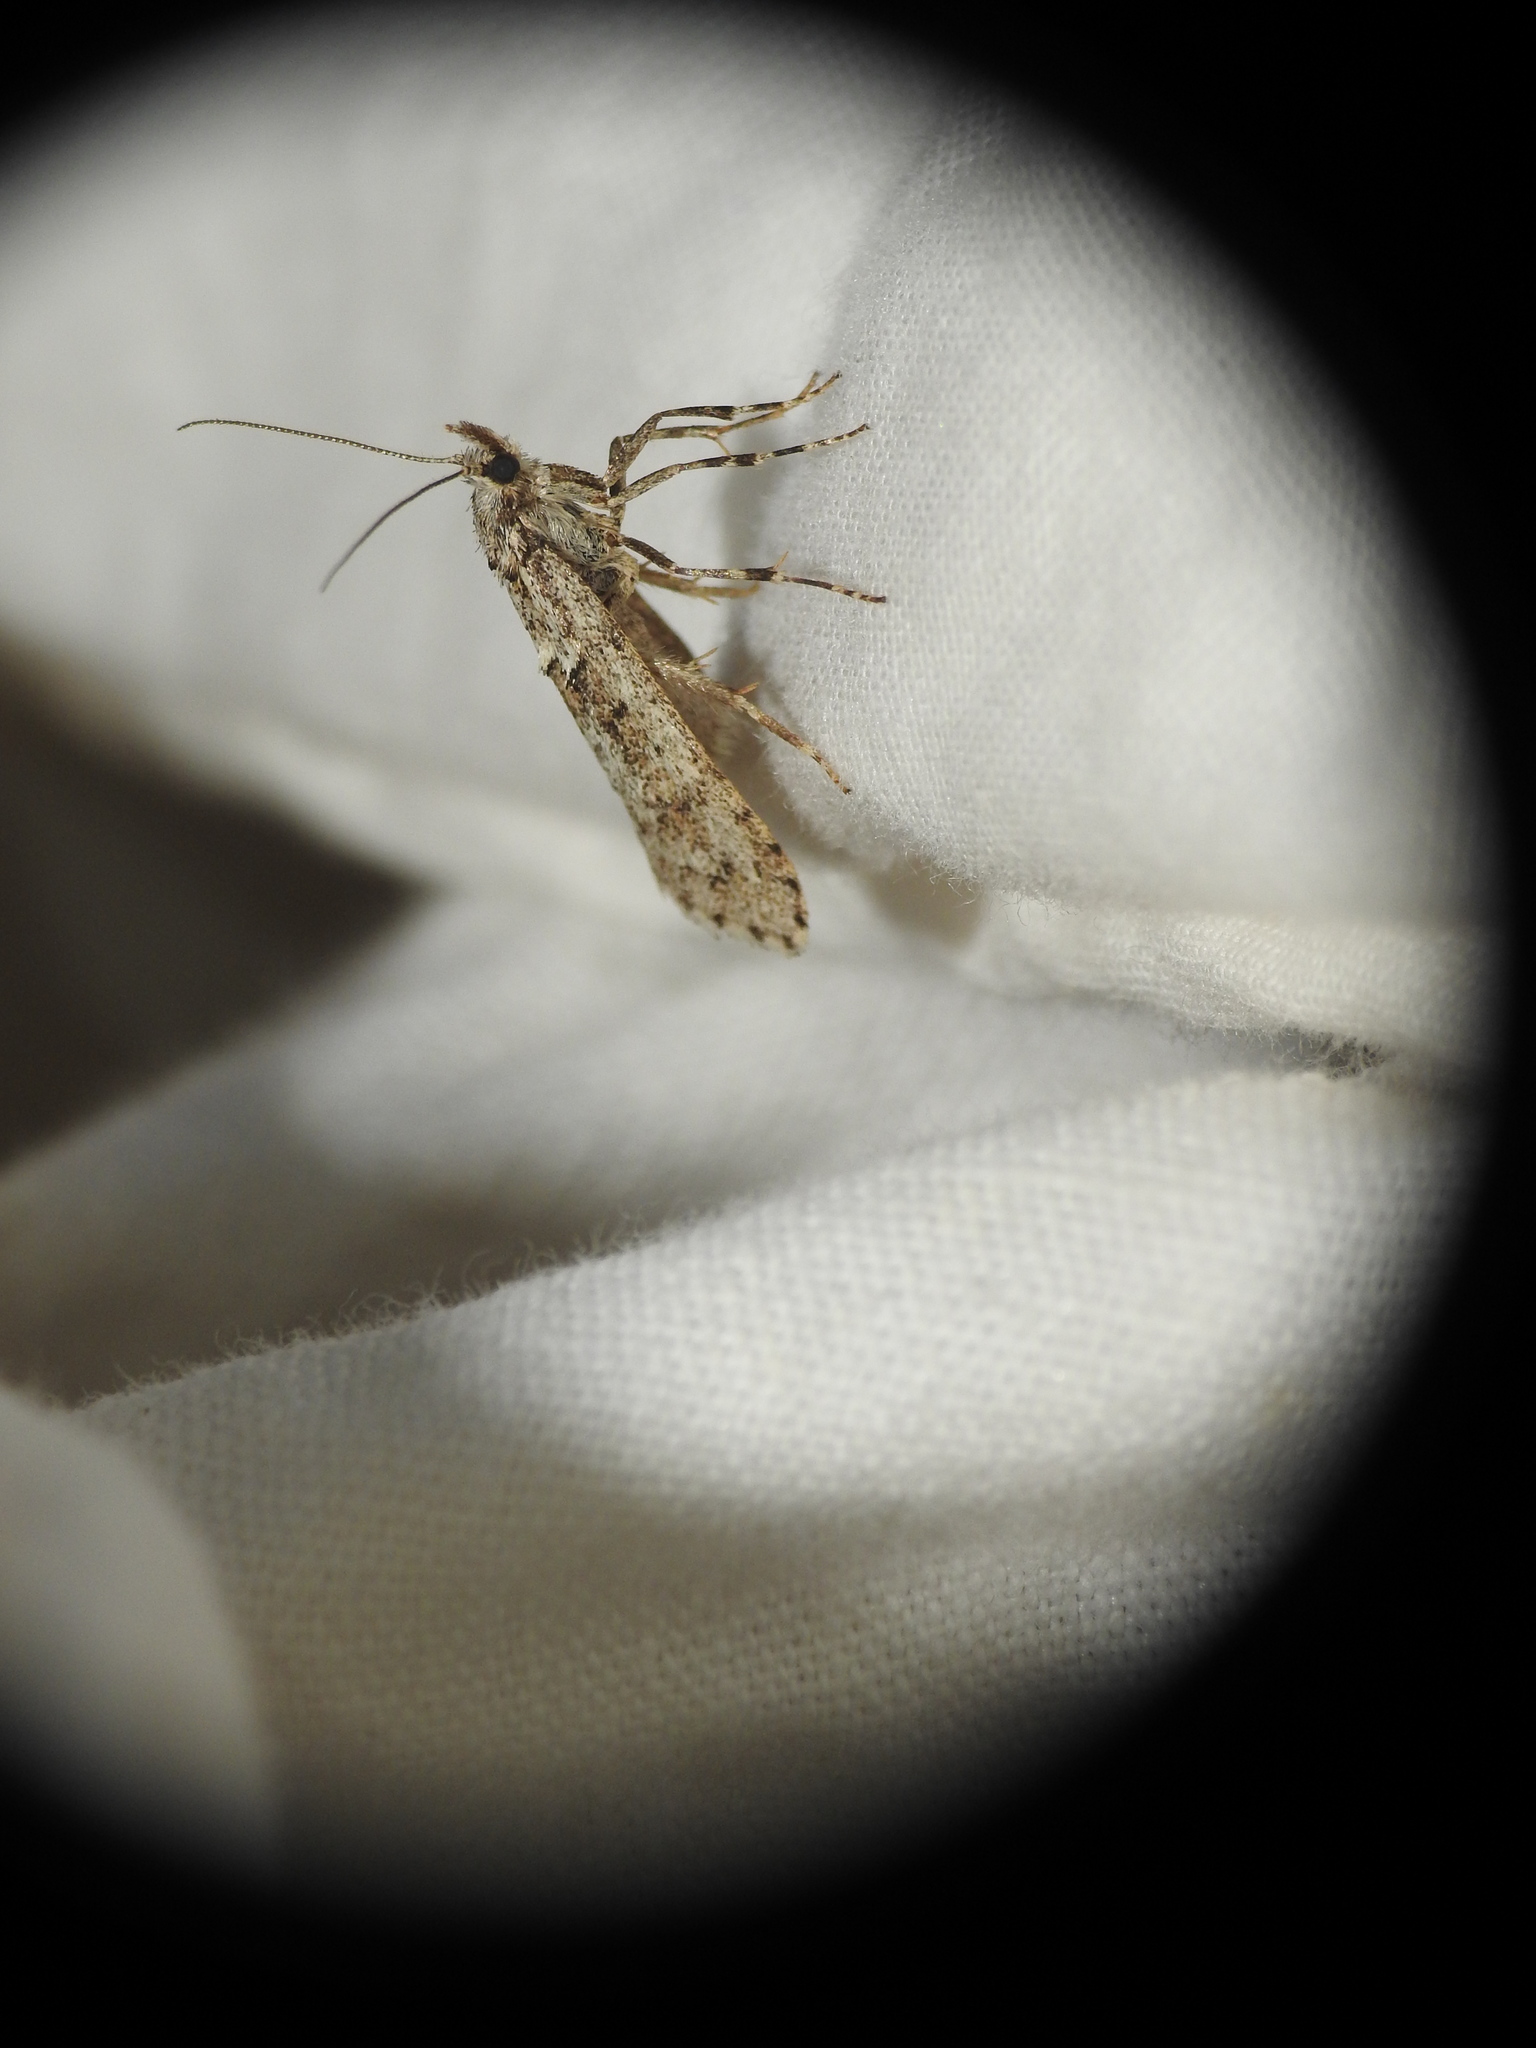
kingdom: Animalia
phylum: Arthropoda
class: Insecta
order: Lepidoptera
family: Lypusidae
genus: Diurnea
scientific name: Diurnea fagella
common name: March tubic
